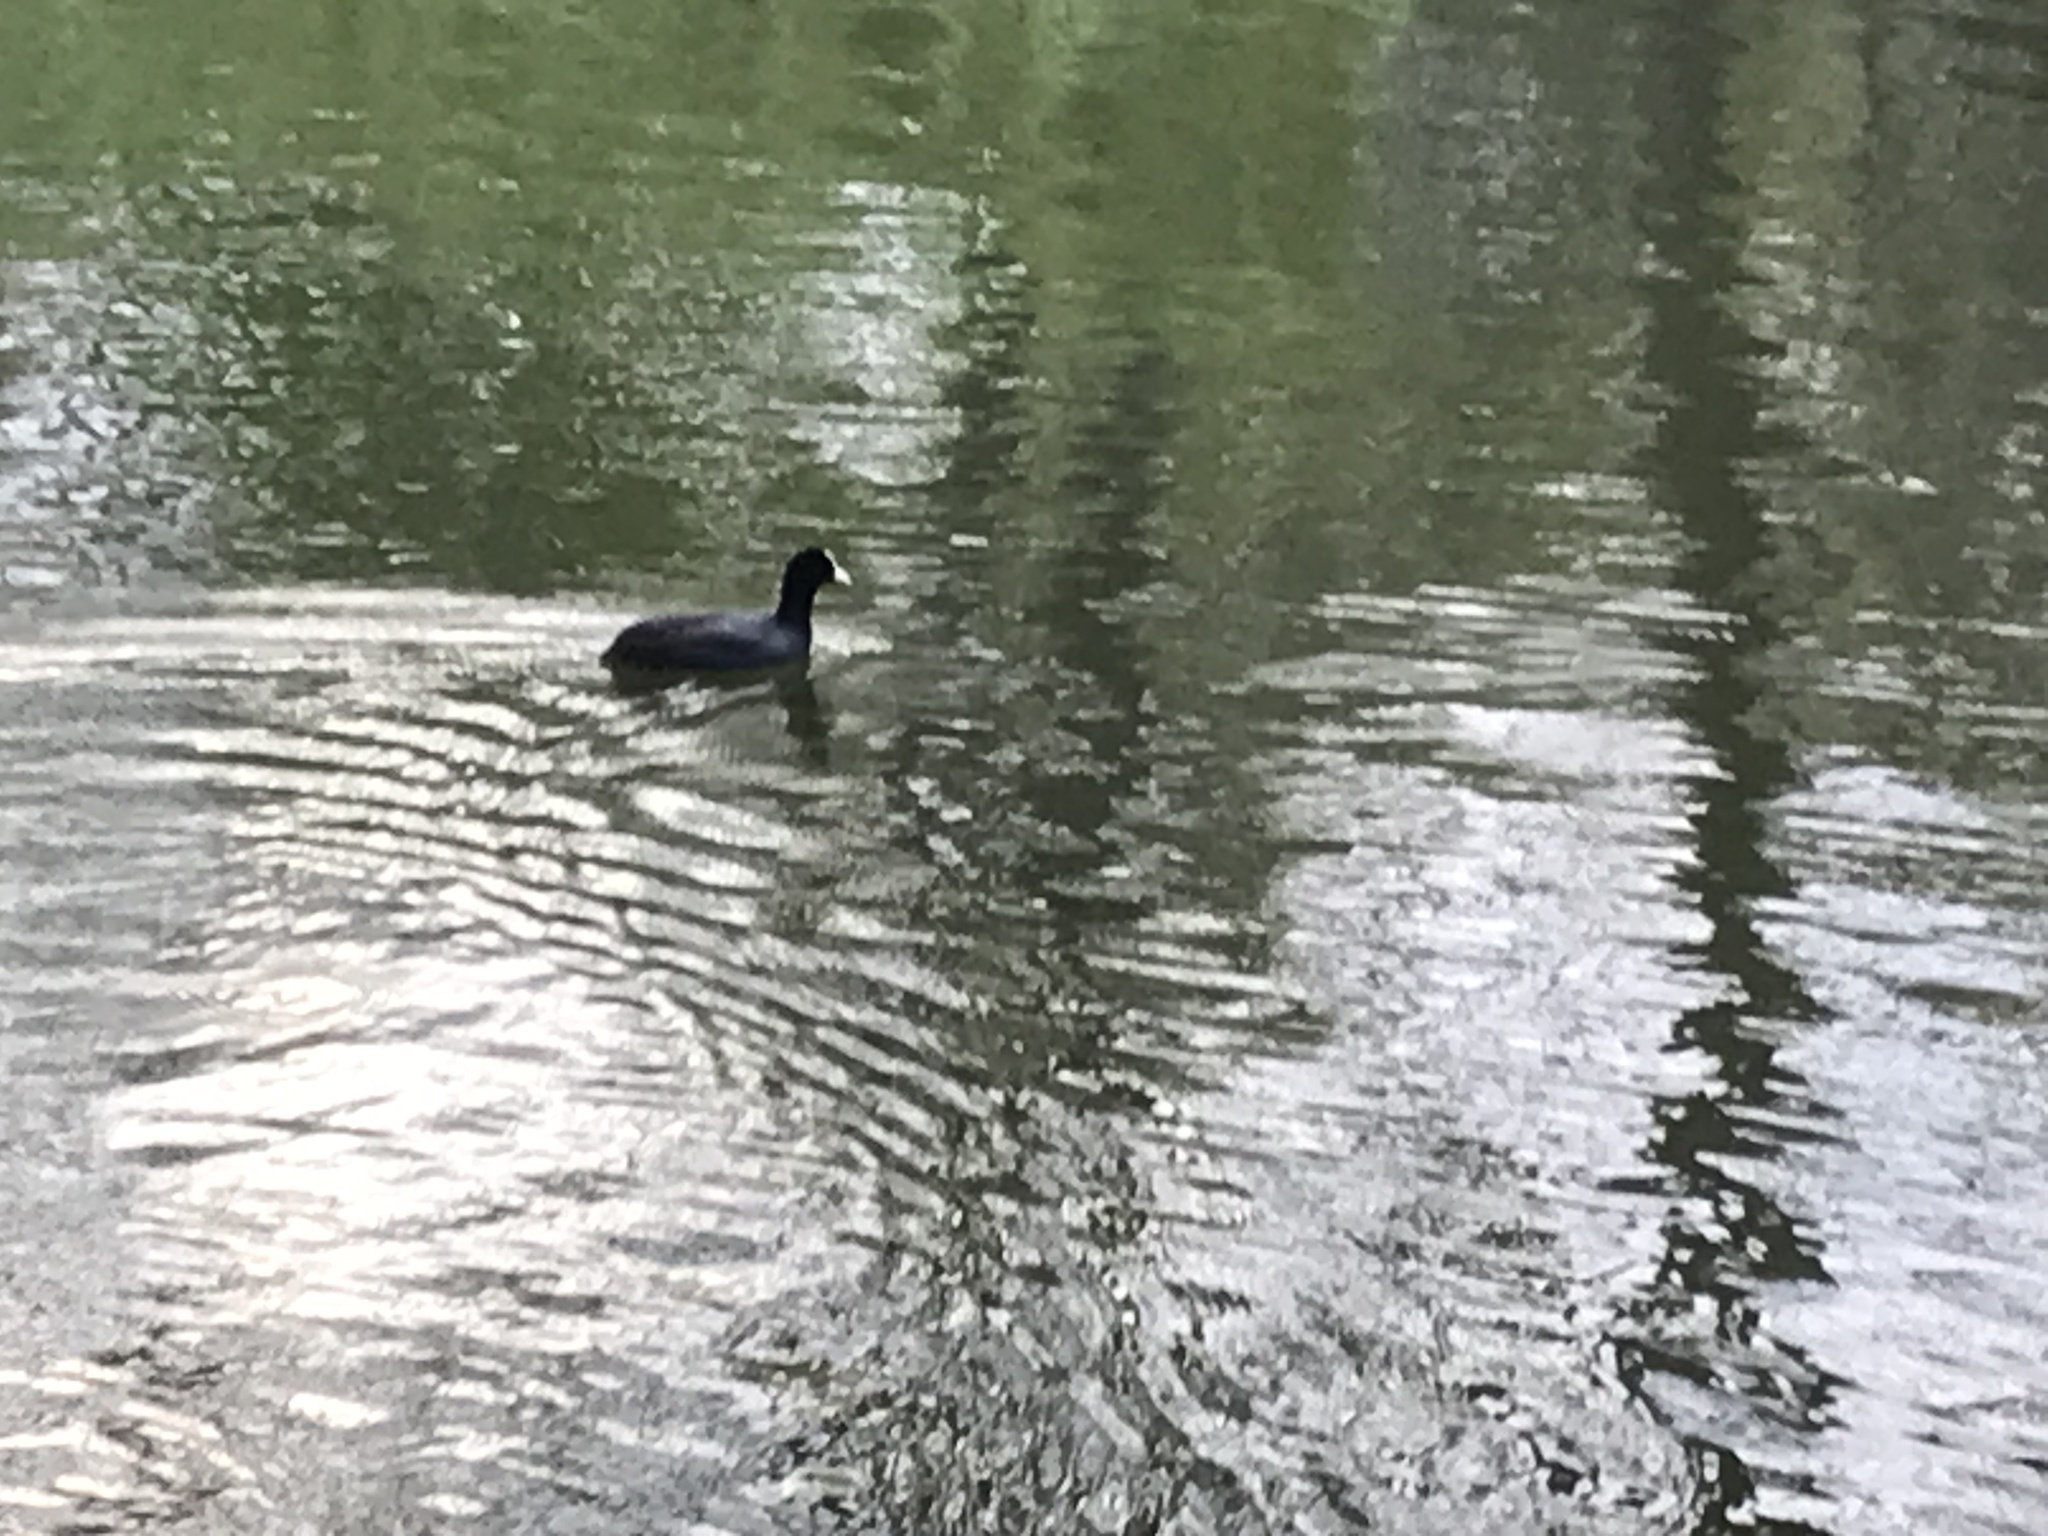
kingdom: Animalia
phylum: Chordata
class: Aves
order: Gruiformes
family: Rallidae
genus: Fulica
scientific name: Fulica atra
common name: Eurasian coot
